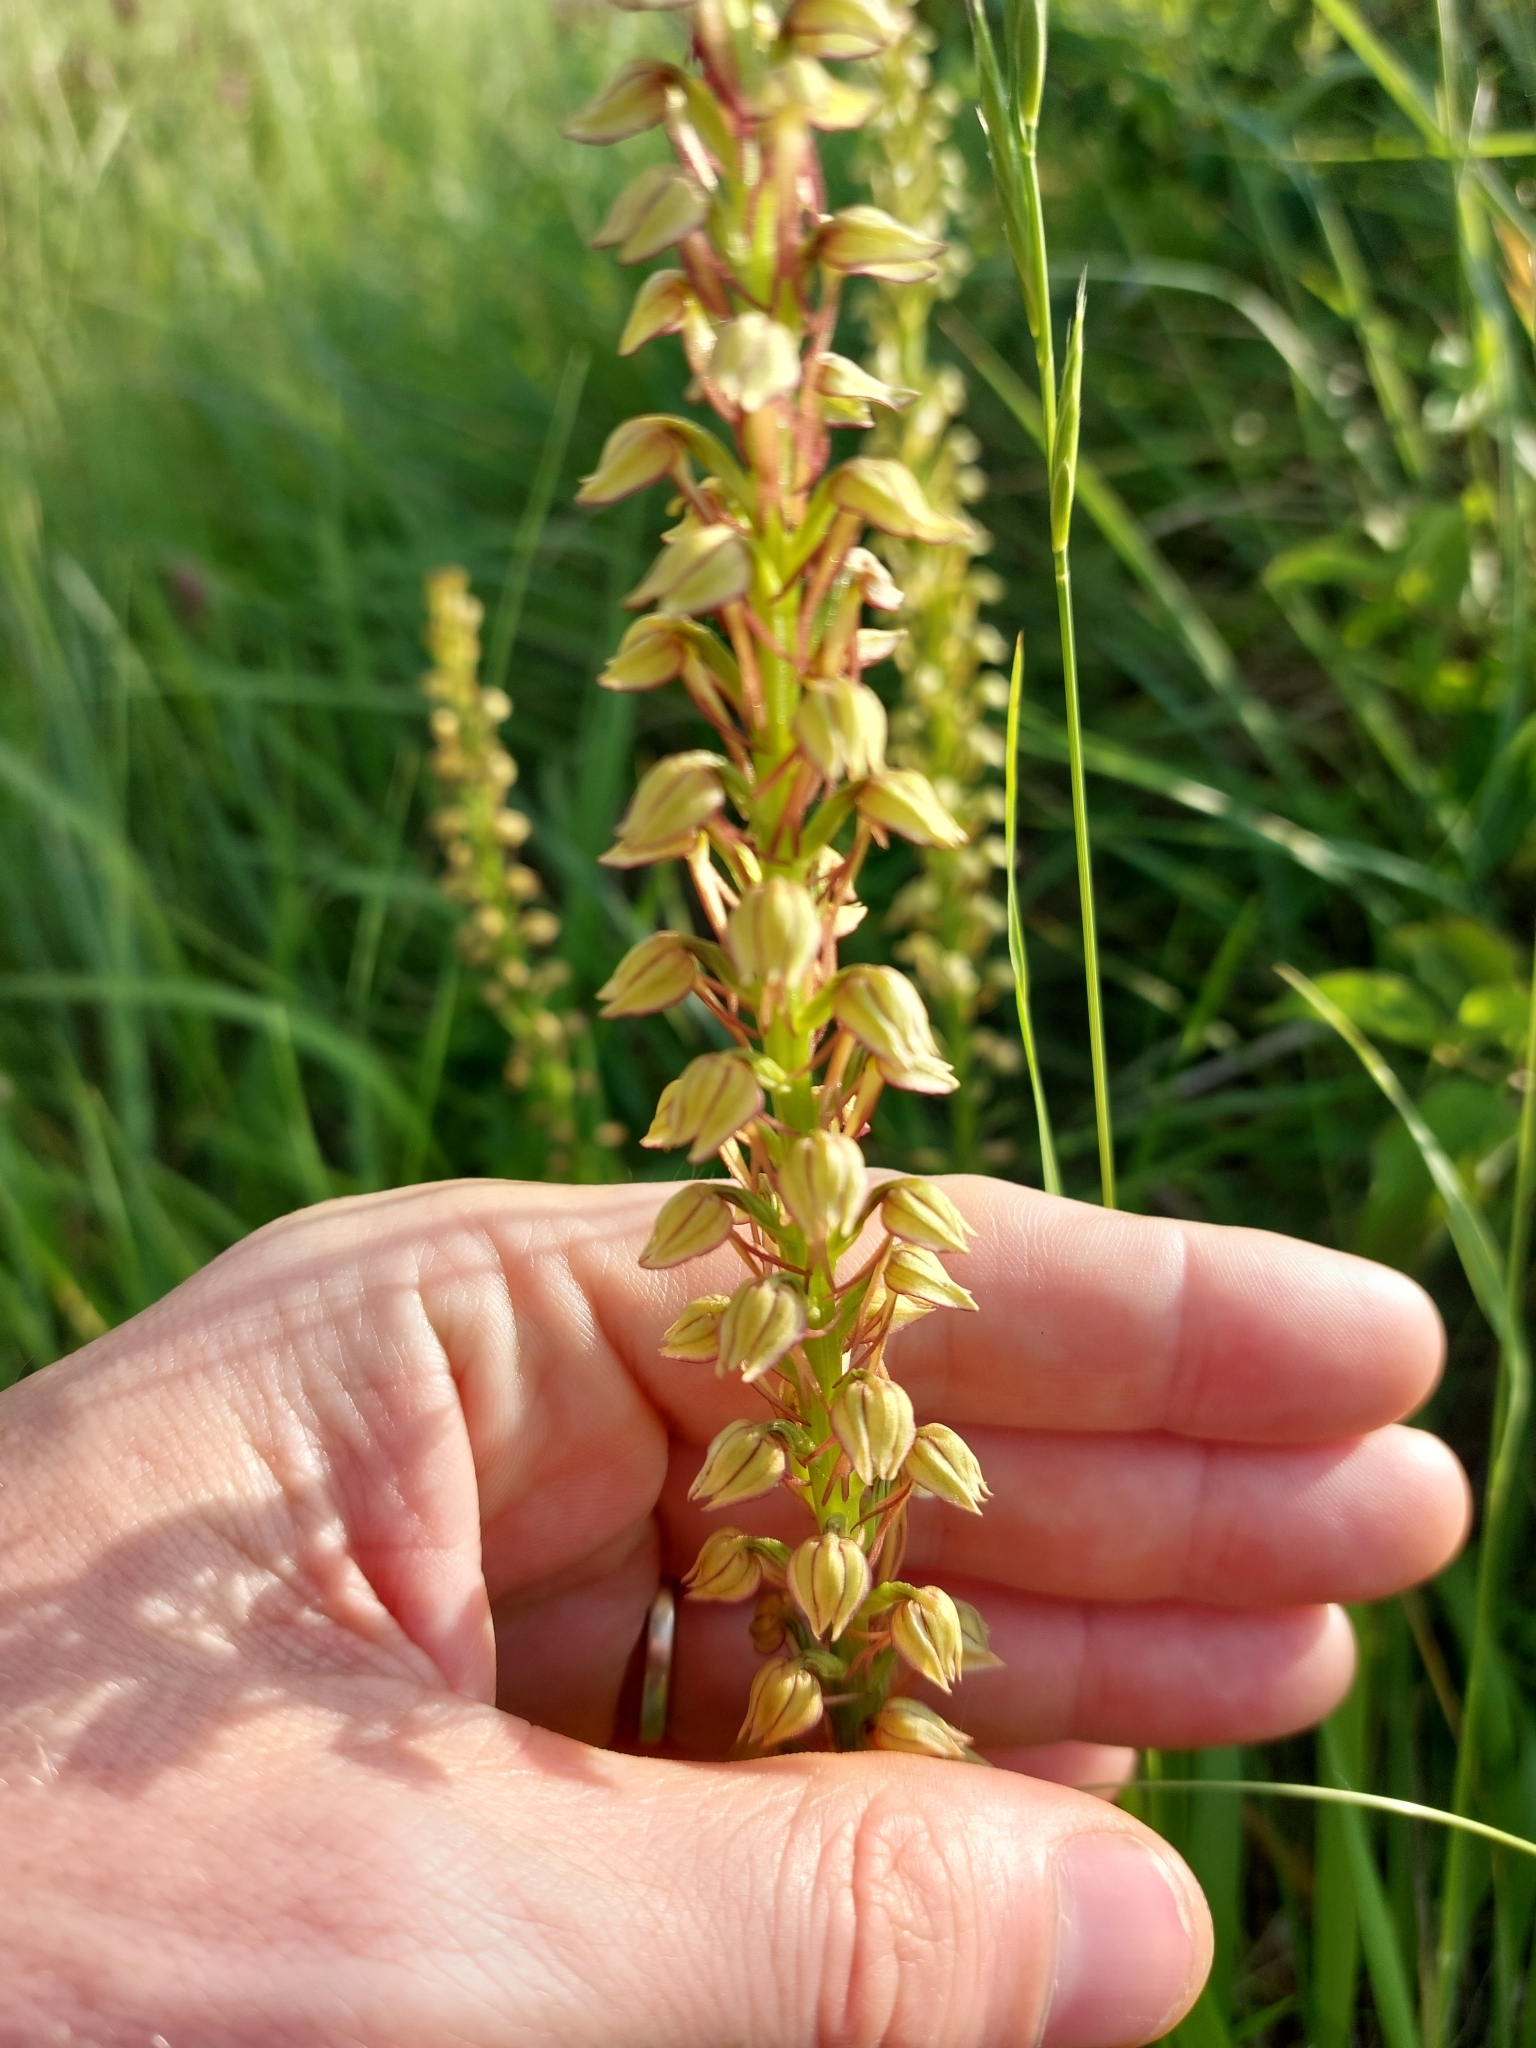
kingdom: Plantae
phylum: Tracheophyta
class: Liliopsida
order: Asparagales
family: Orchidaceae
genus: Orchis
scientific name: Orchis anthropophora
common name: Man orchid
